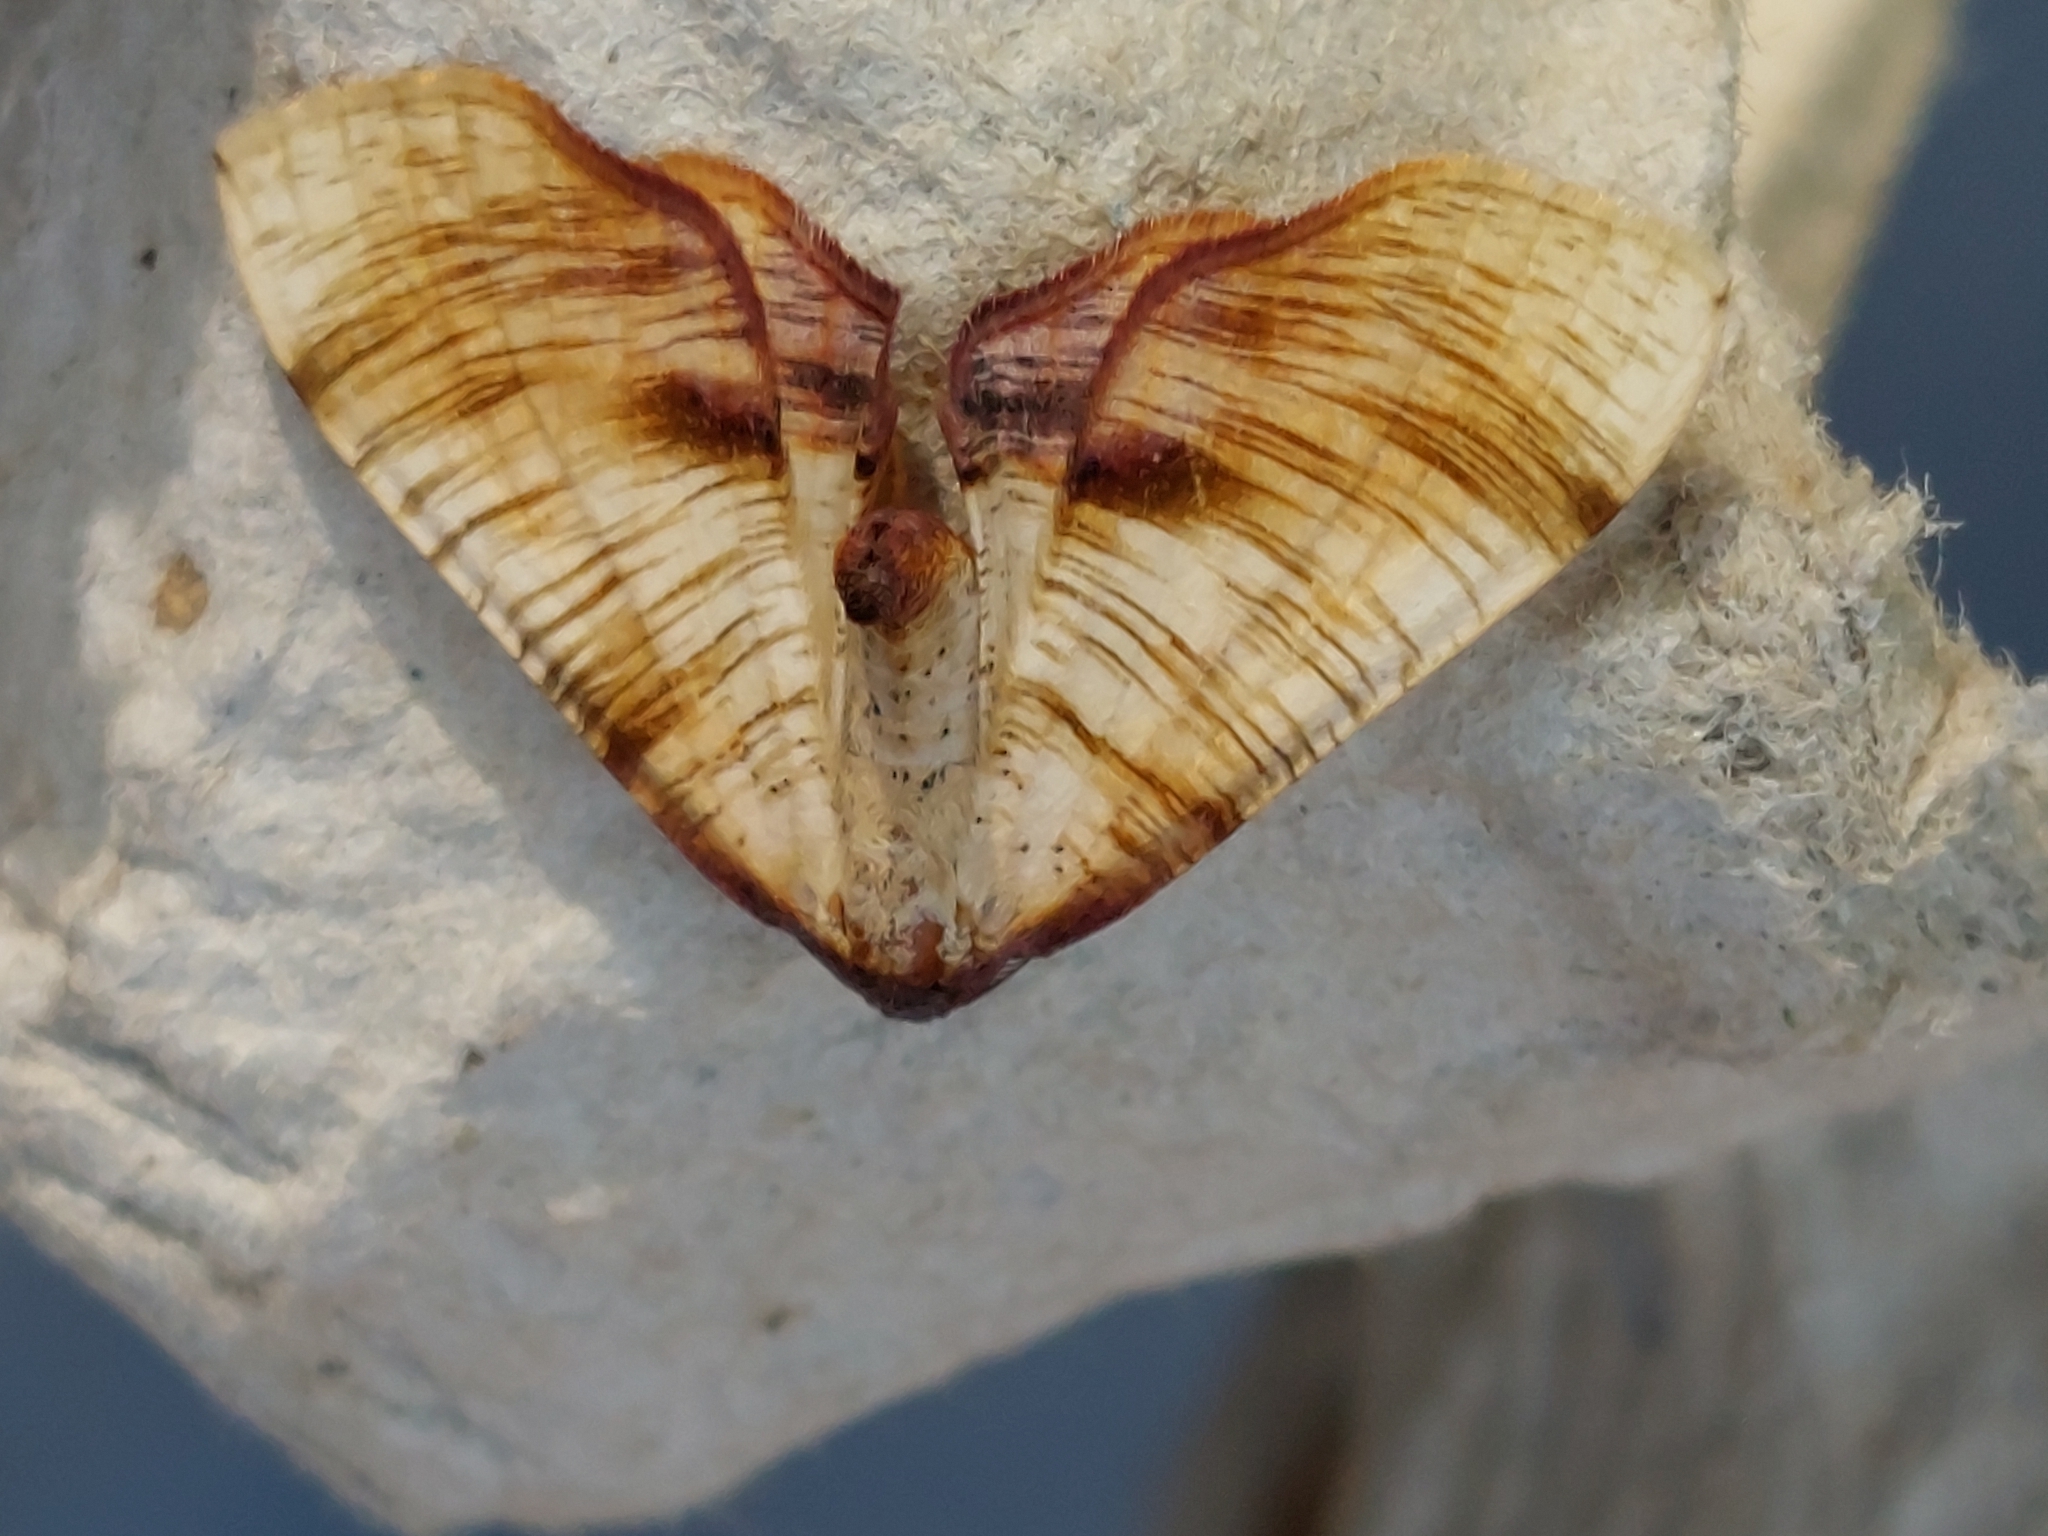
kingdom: Animalia
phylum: Arthropoda
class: Insecta
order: Lepidoptera
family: Geometridae
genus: Plagodis
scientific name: Plagodis dolabraria
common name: Scorched wing
